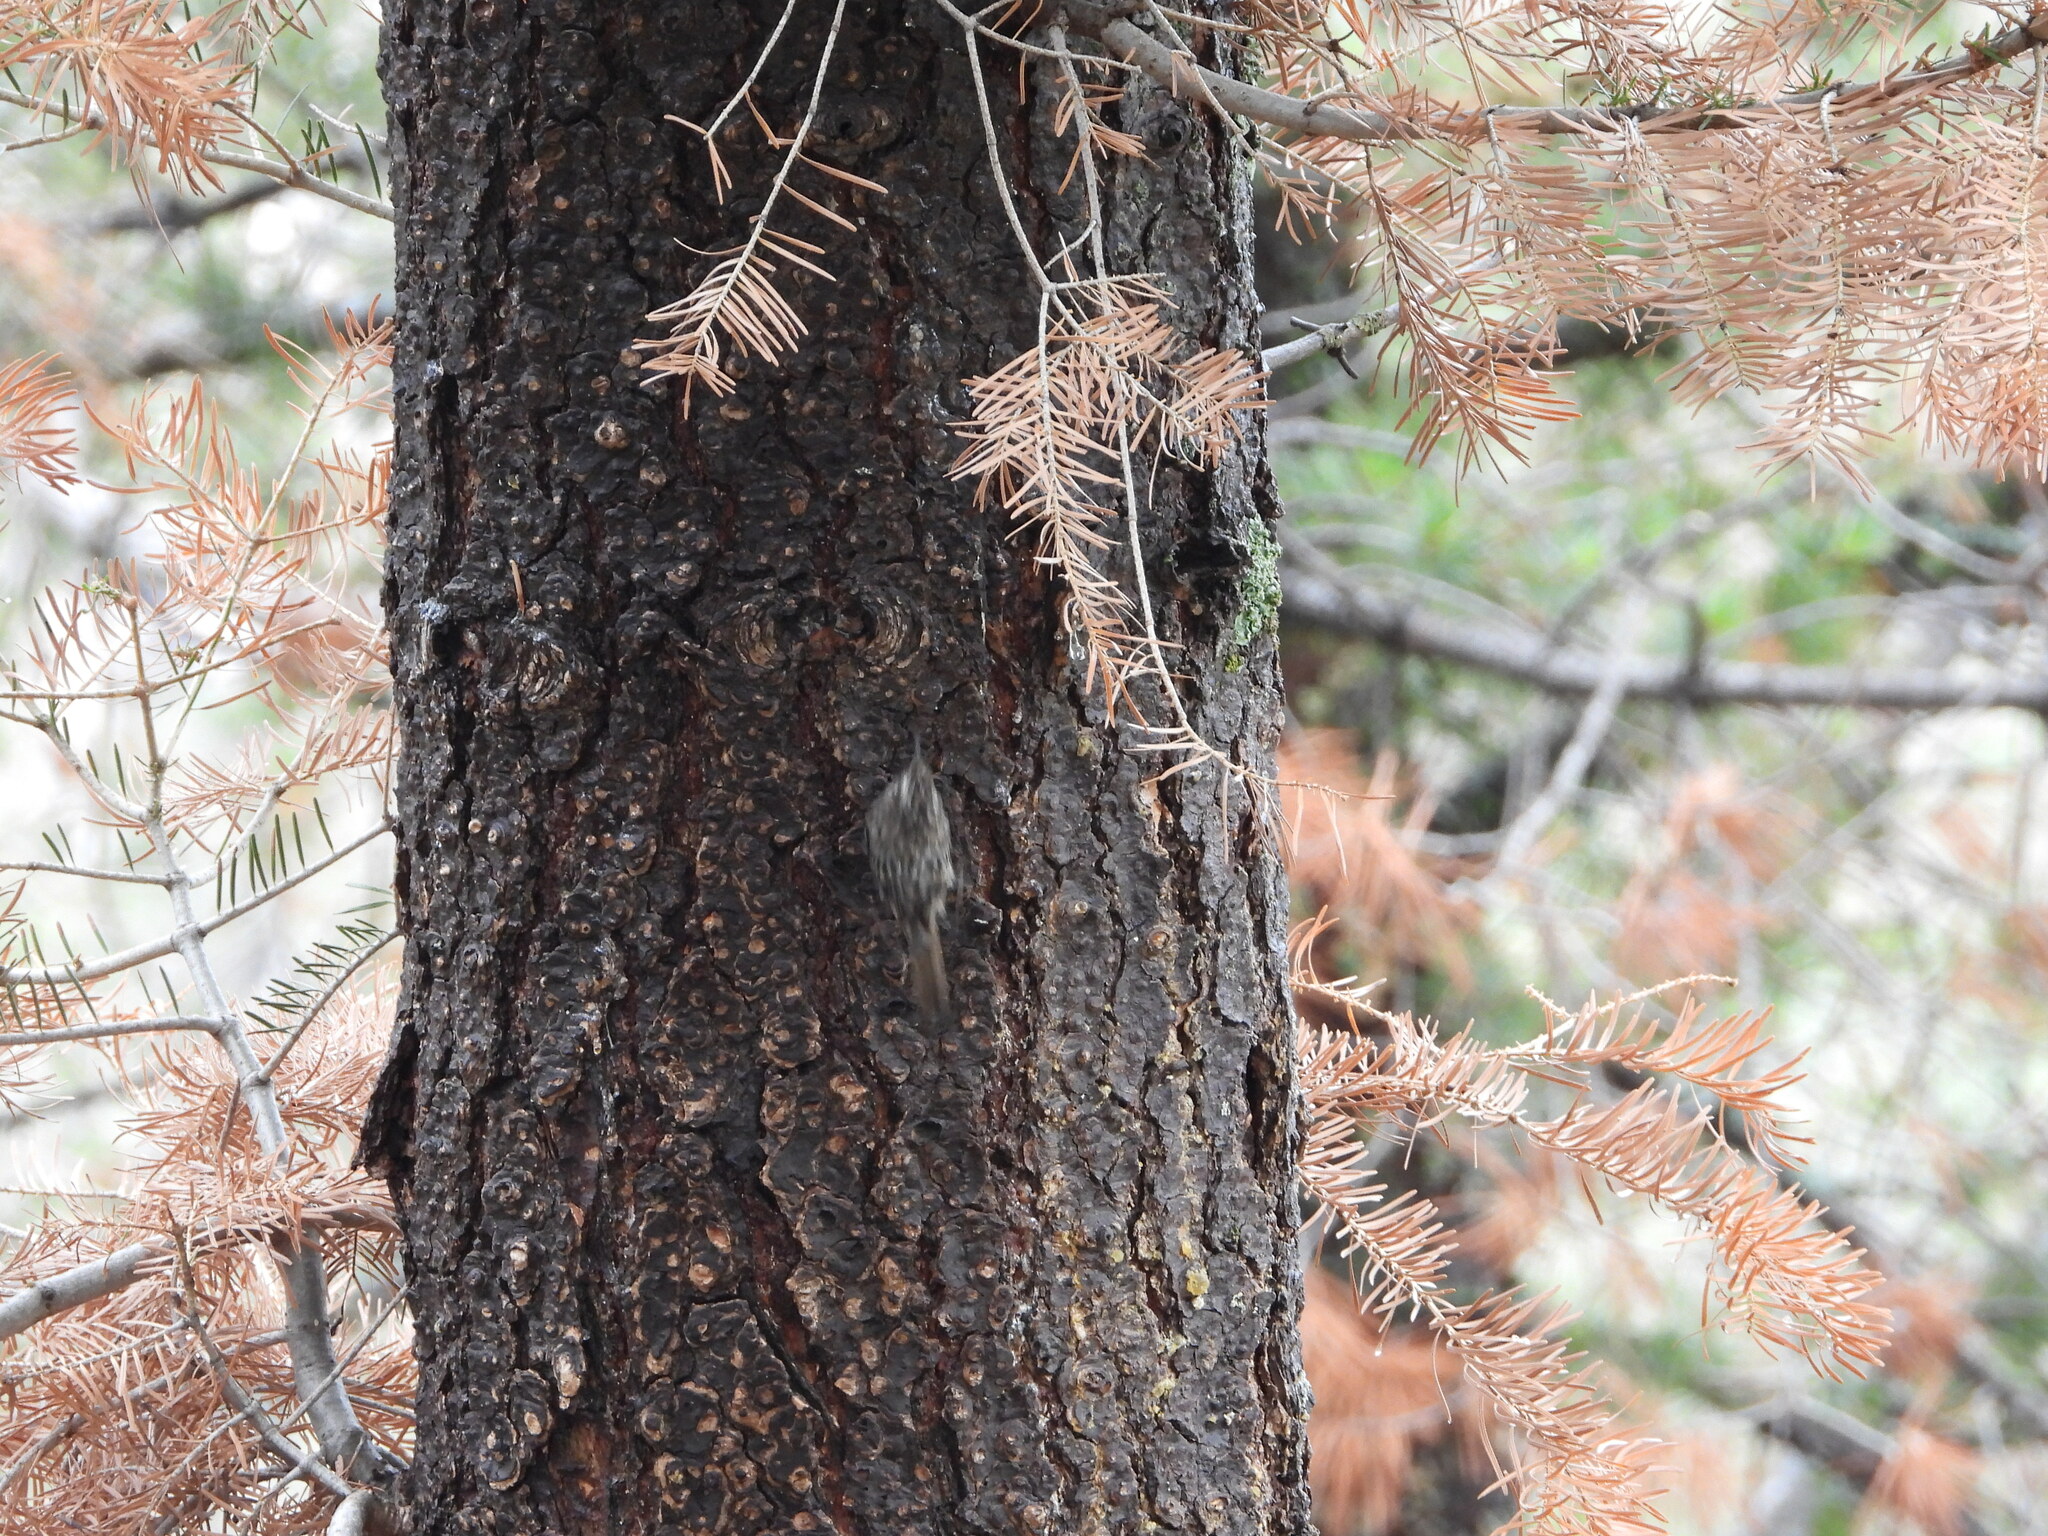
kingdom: Animalia
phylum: Chordata
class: Aves
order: Passeriformes
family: Certhiidae
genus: Certhia
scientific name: Certhia americana
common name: Brown creeper
